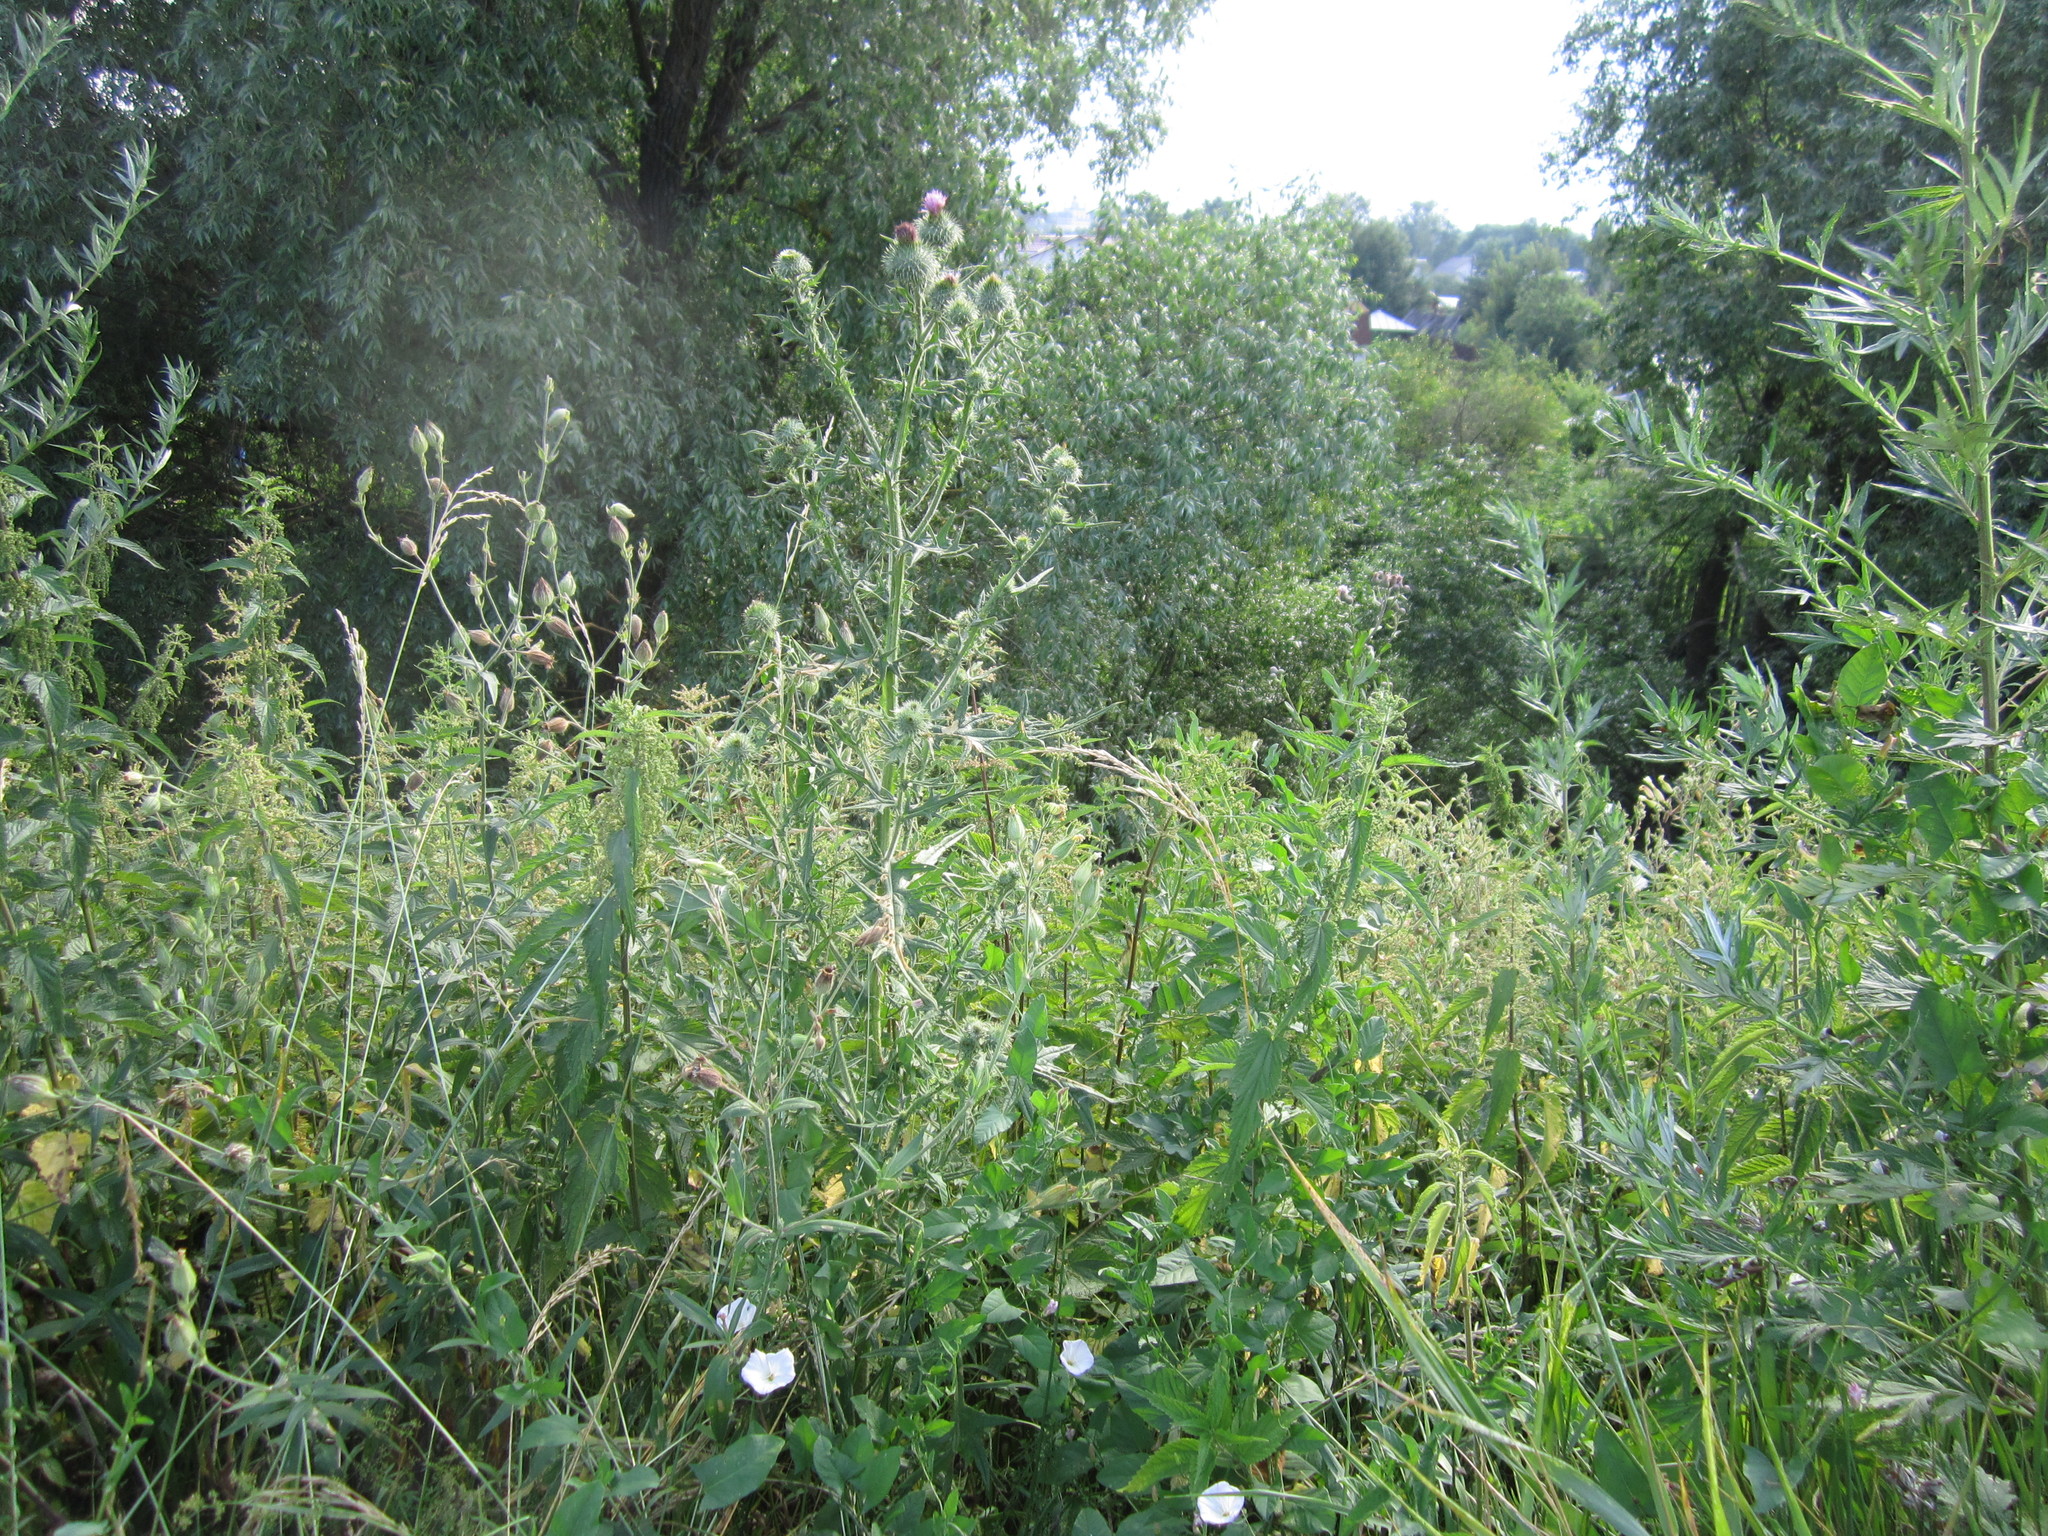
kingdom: Plantae
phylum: Tracheophyta
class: Magnoliopsida
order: Asterales
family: Asteraceae
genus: Cirsium
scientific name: Cirsium vulgare
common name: Bull thistle
